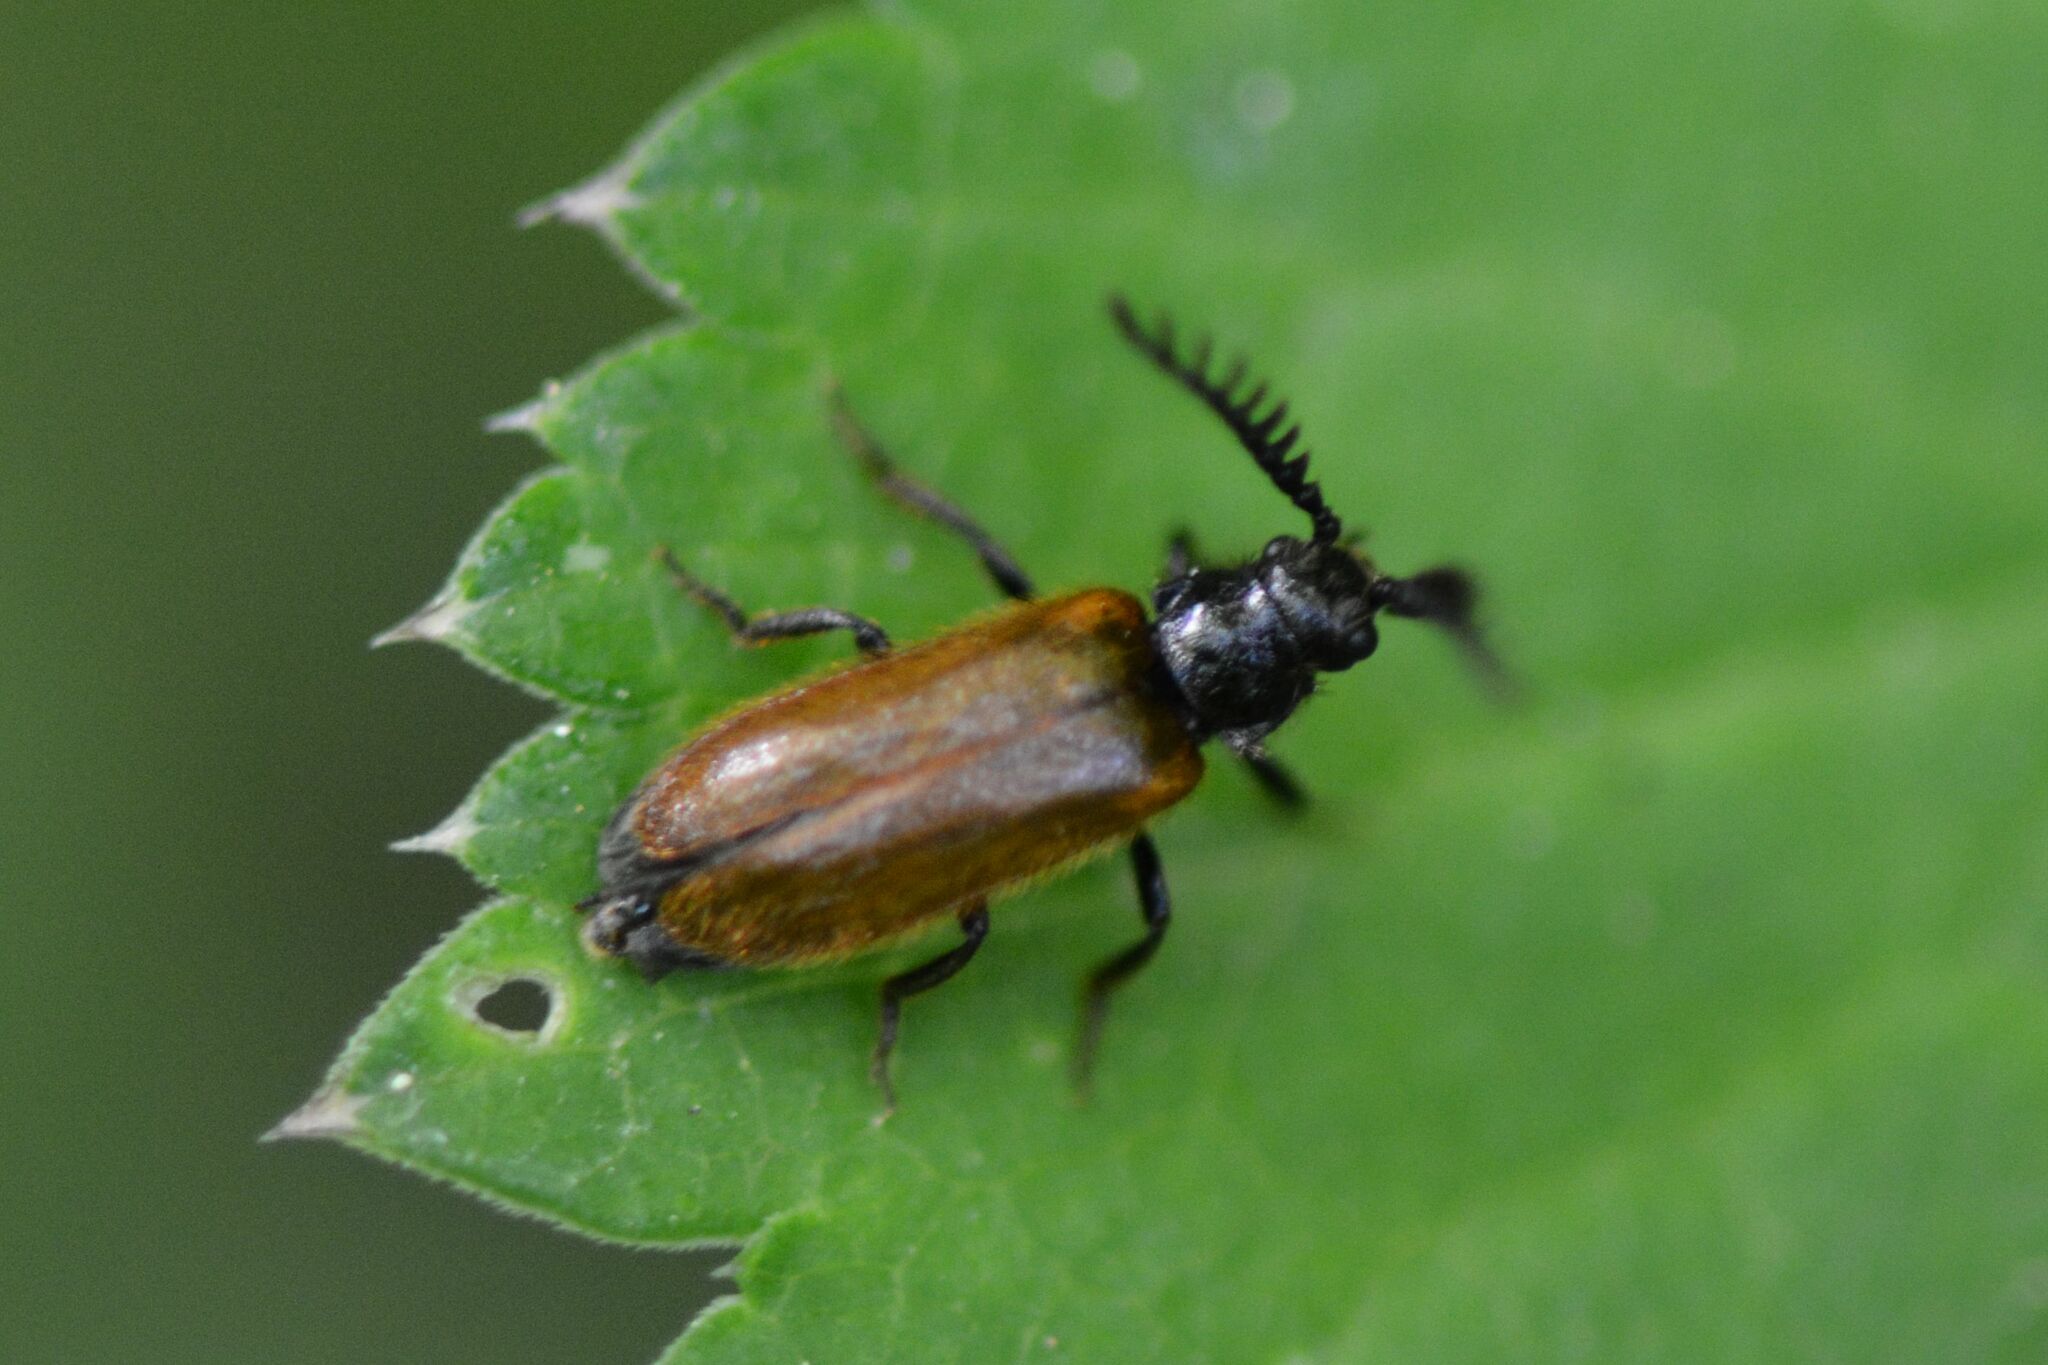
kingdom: Animalia
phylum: Arthropoda
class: Insecta
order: Coleoptera
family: Drilidae
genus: Drilus
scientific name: Drilus flavescens
